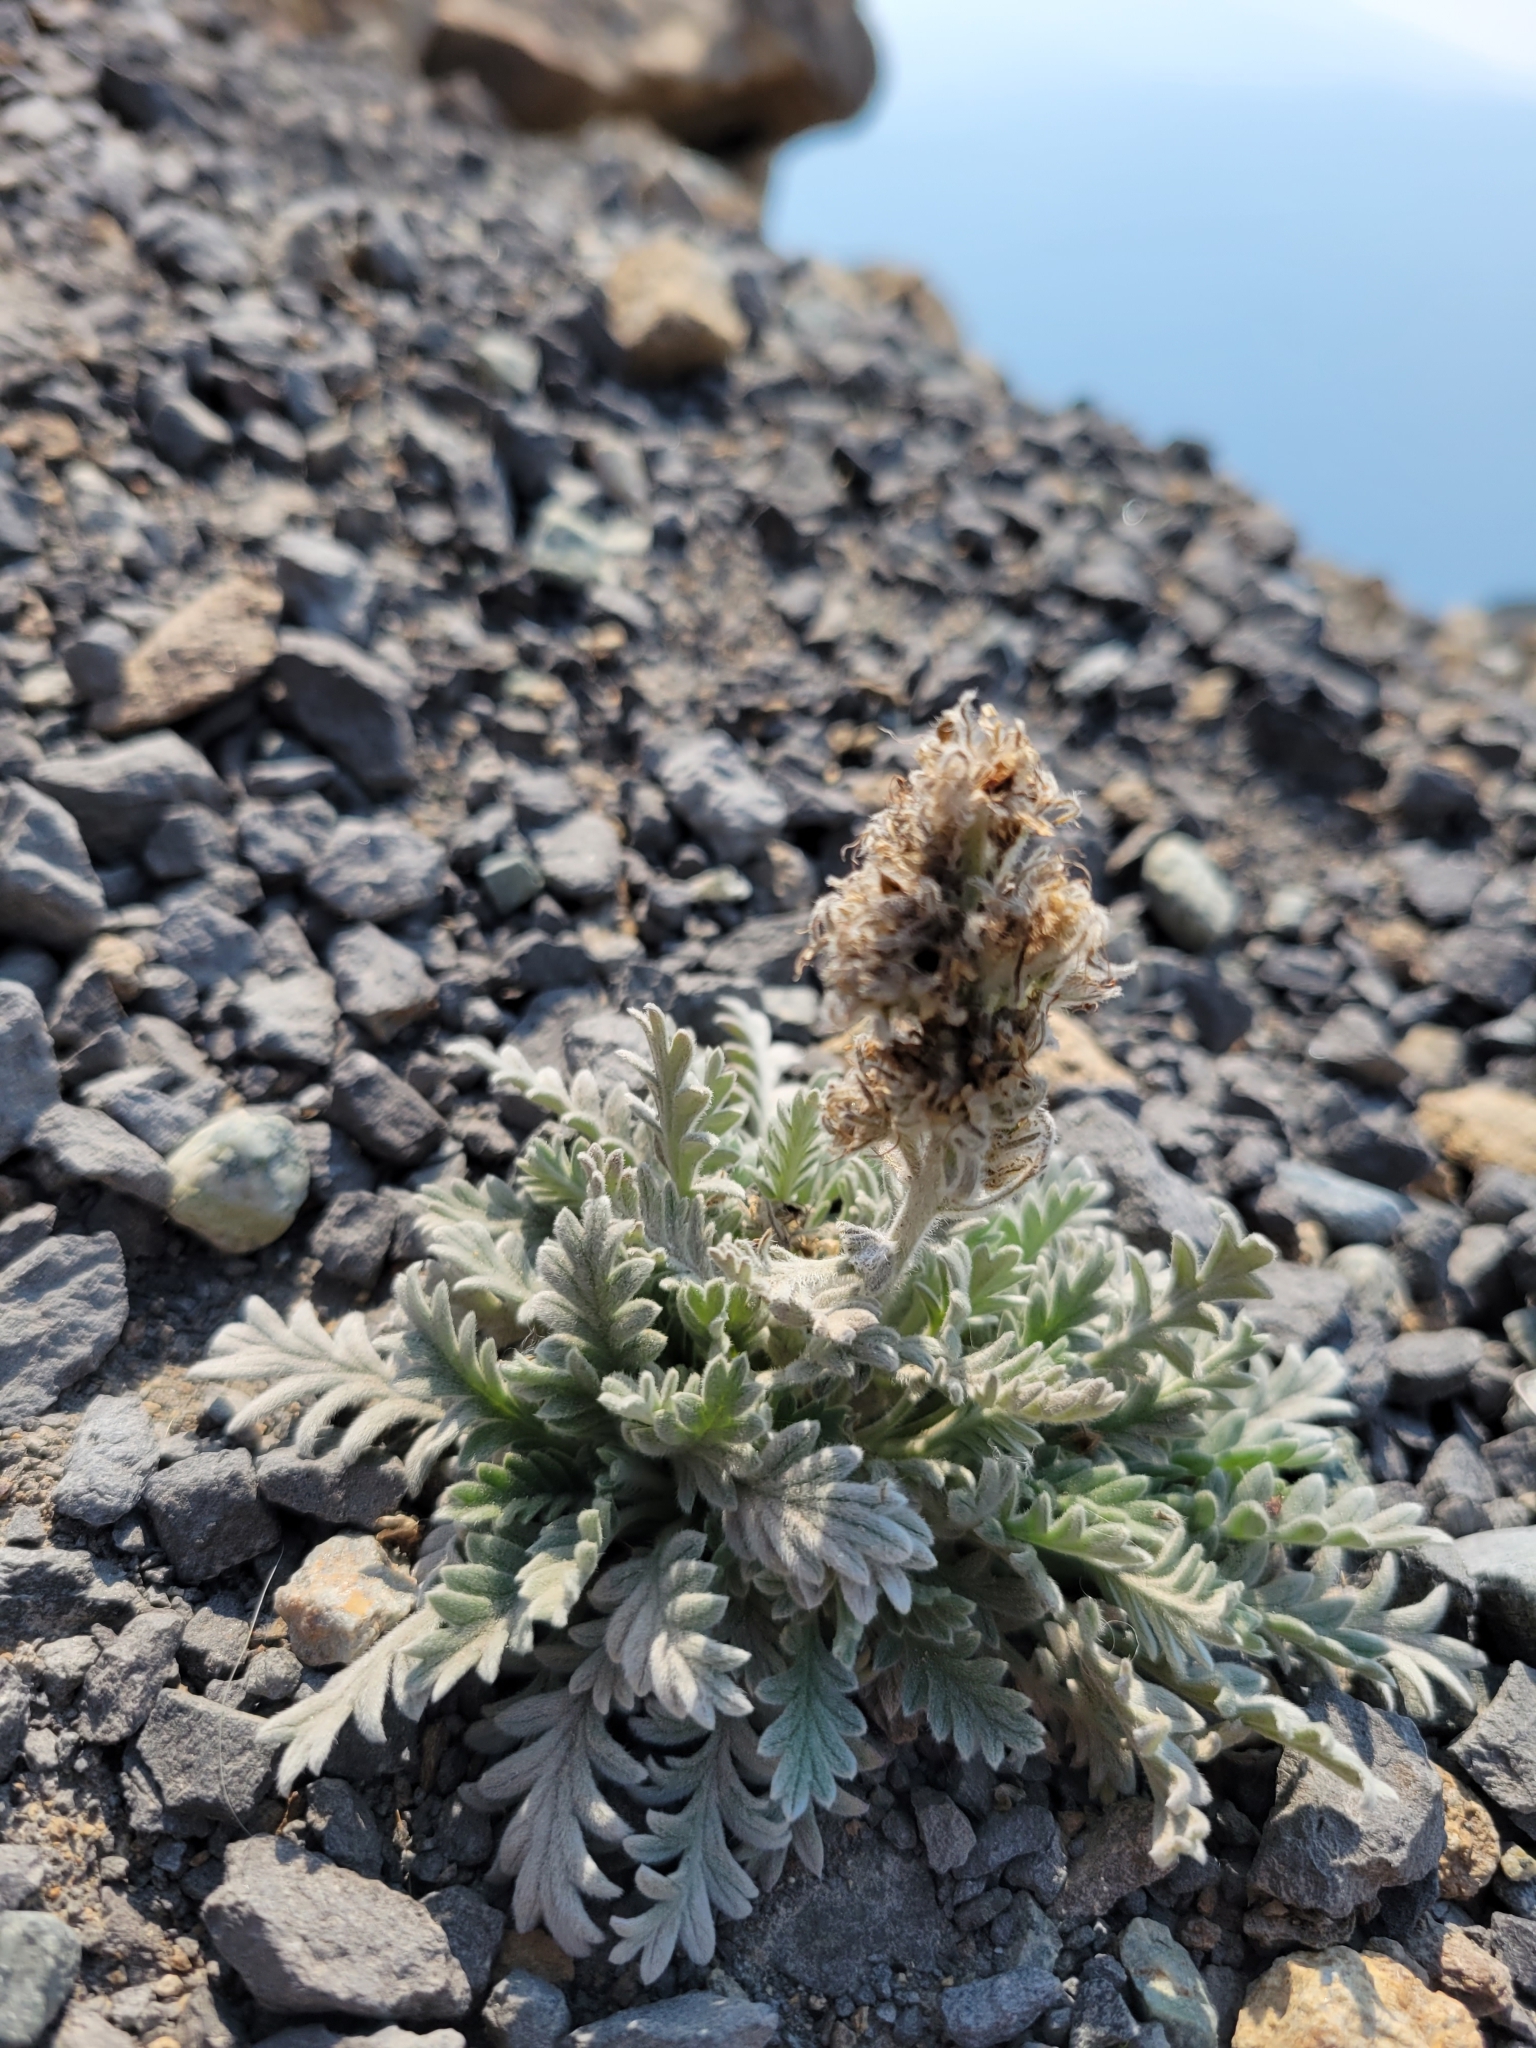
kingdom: Plantae
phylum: Tracheophyta
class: Magnoliopsida
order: Boraginales
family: Hydrophyllaceae
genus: Phacelia
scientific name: Phacelia sericea
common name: Silky phacelia
